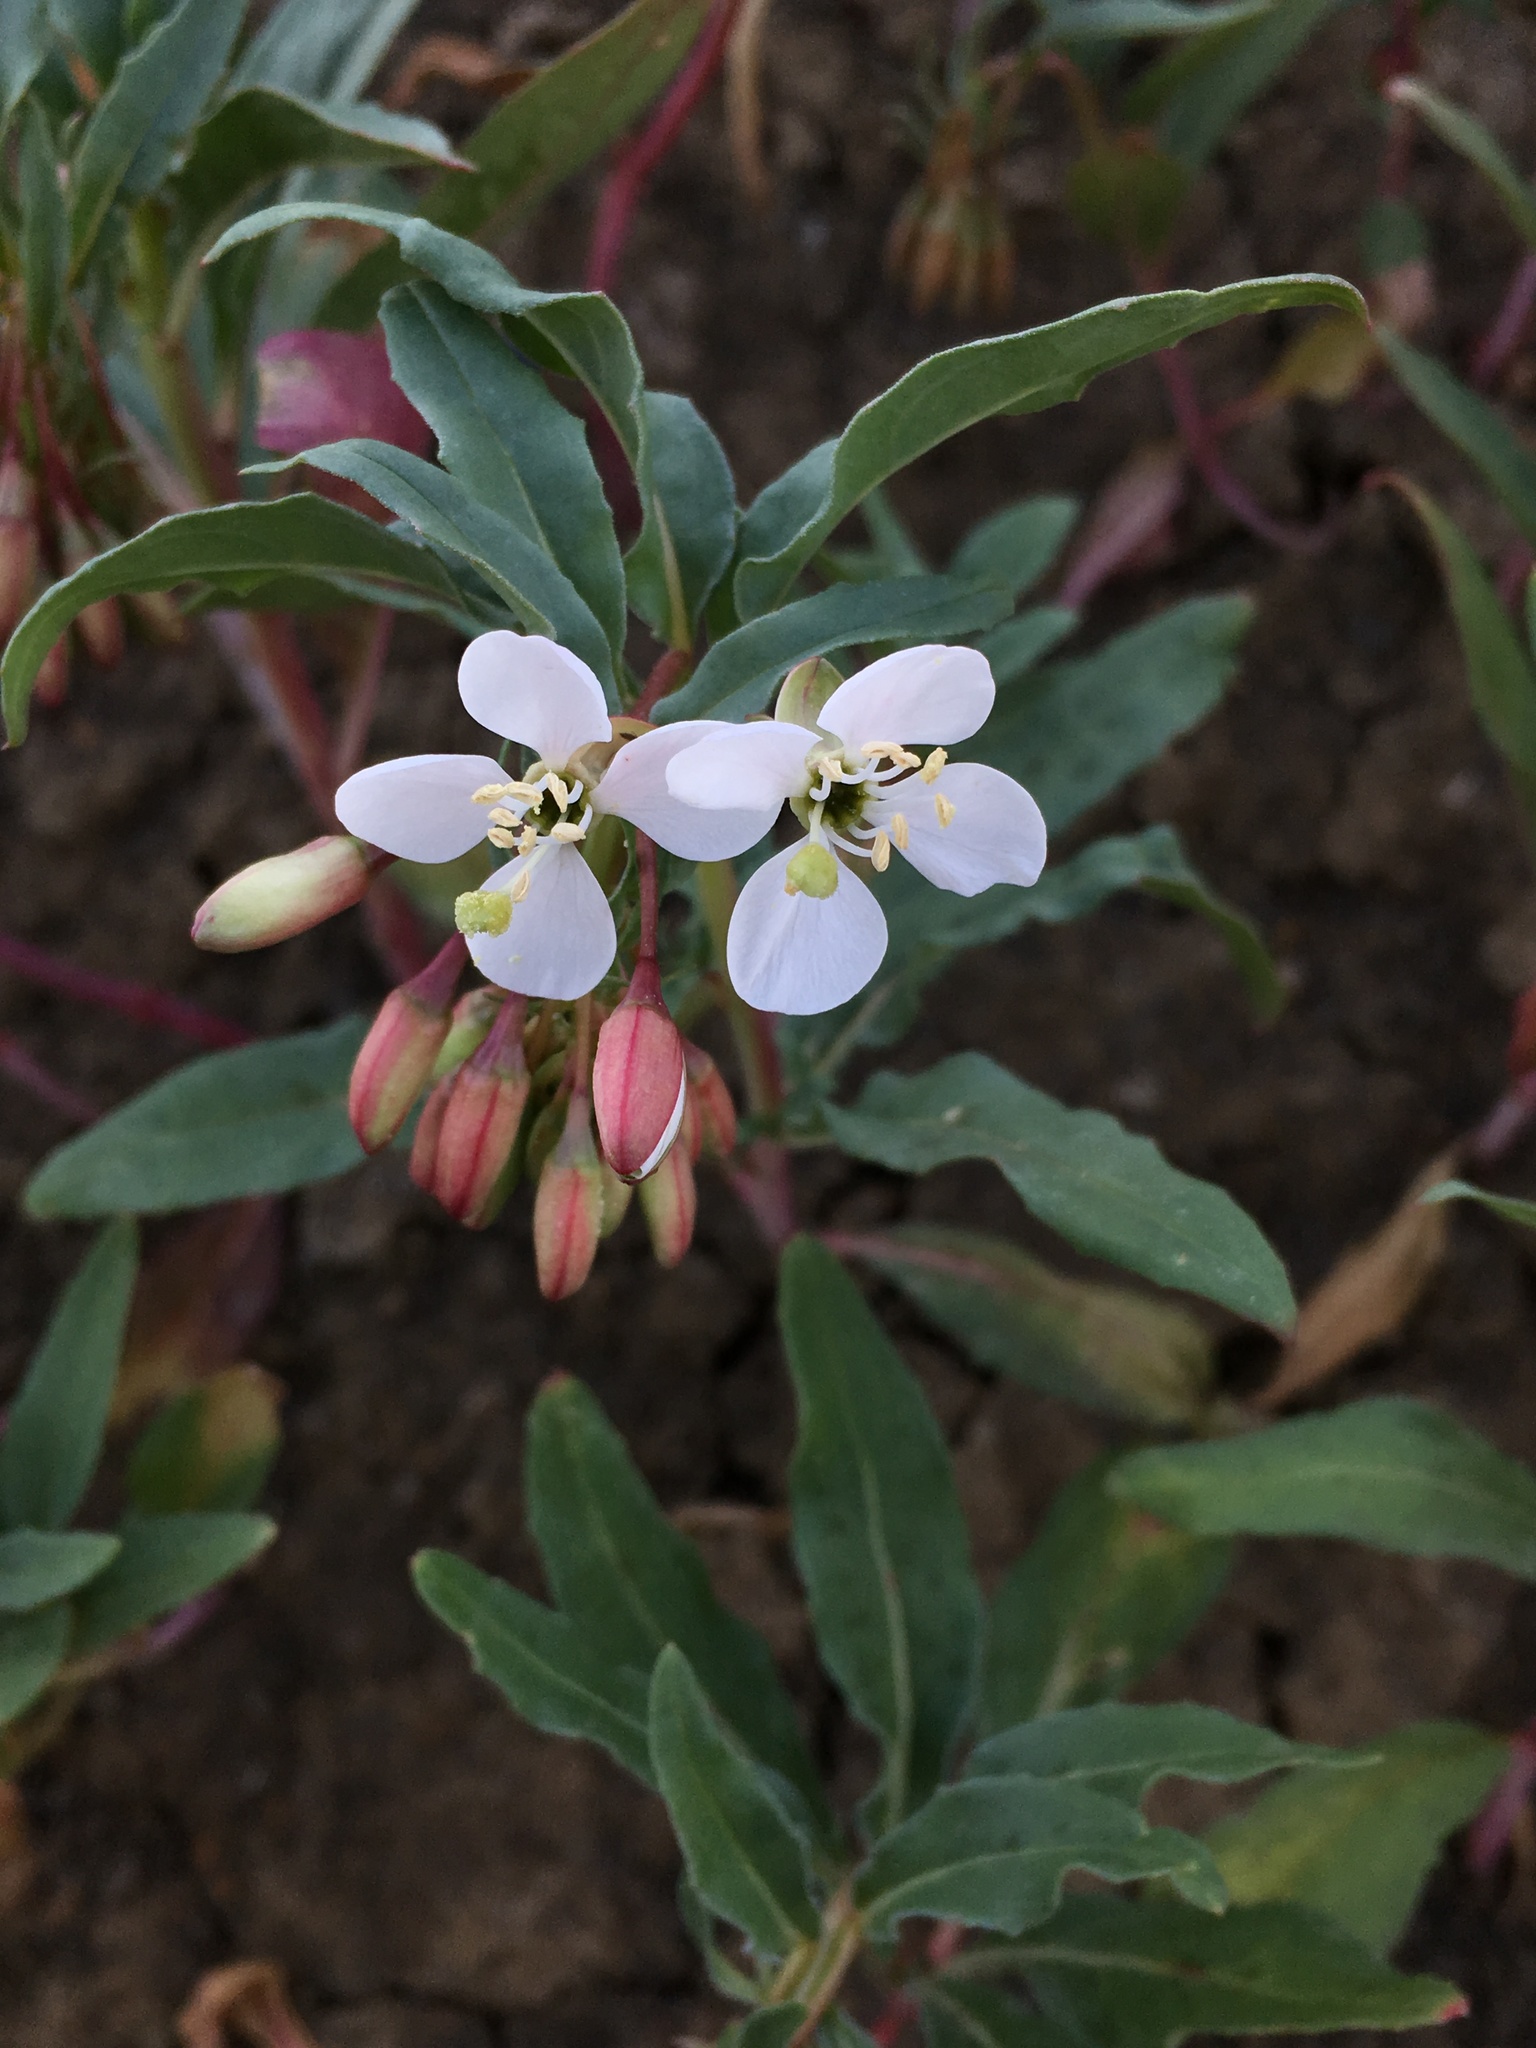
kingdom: Plantae
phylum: Tracheophyta
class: Magnoliopsida
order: Myrtales
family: Onagraceae
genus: Eremothera
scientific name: Eremothera boothii
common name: Booth's evening primrose
